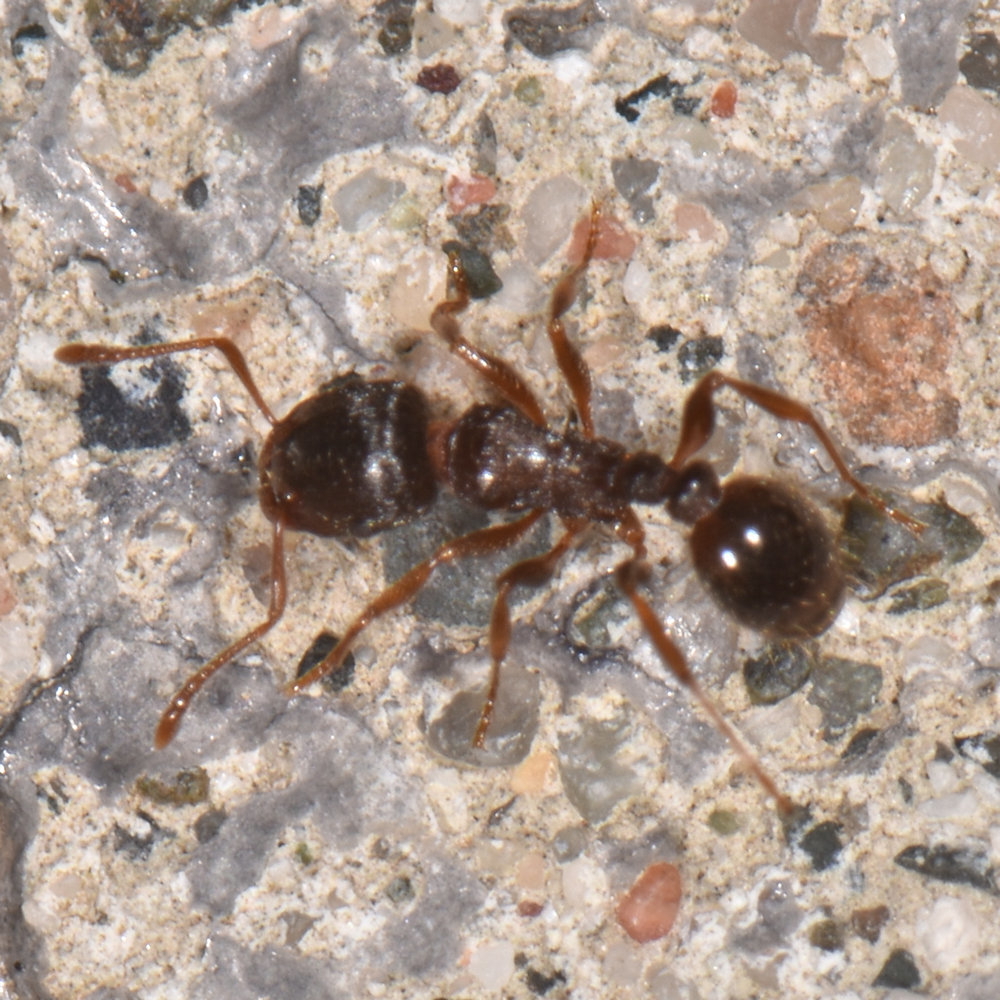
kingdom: Animalia
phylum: Arthropoda
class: Insecta
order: Hymenoptera
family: Formicidae
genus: Tetramorium
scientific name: Tetramorium immigrans
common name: Pavement ant
